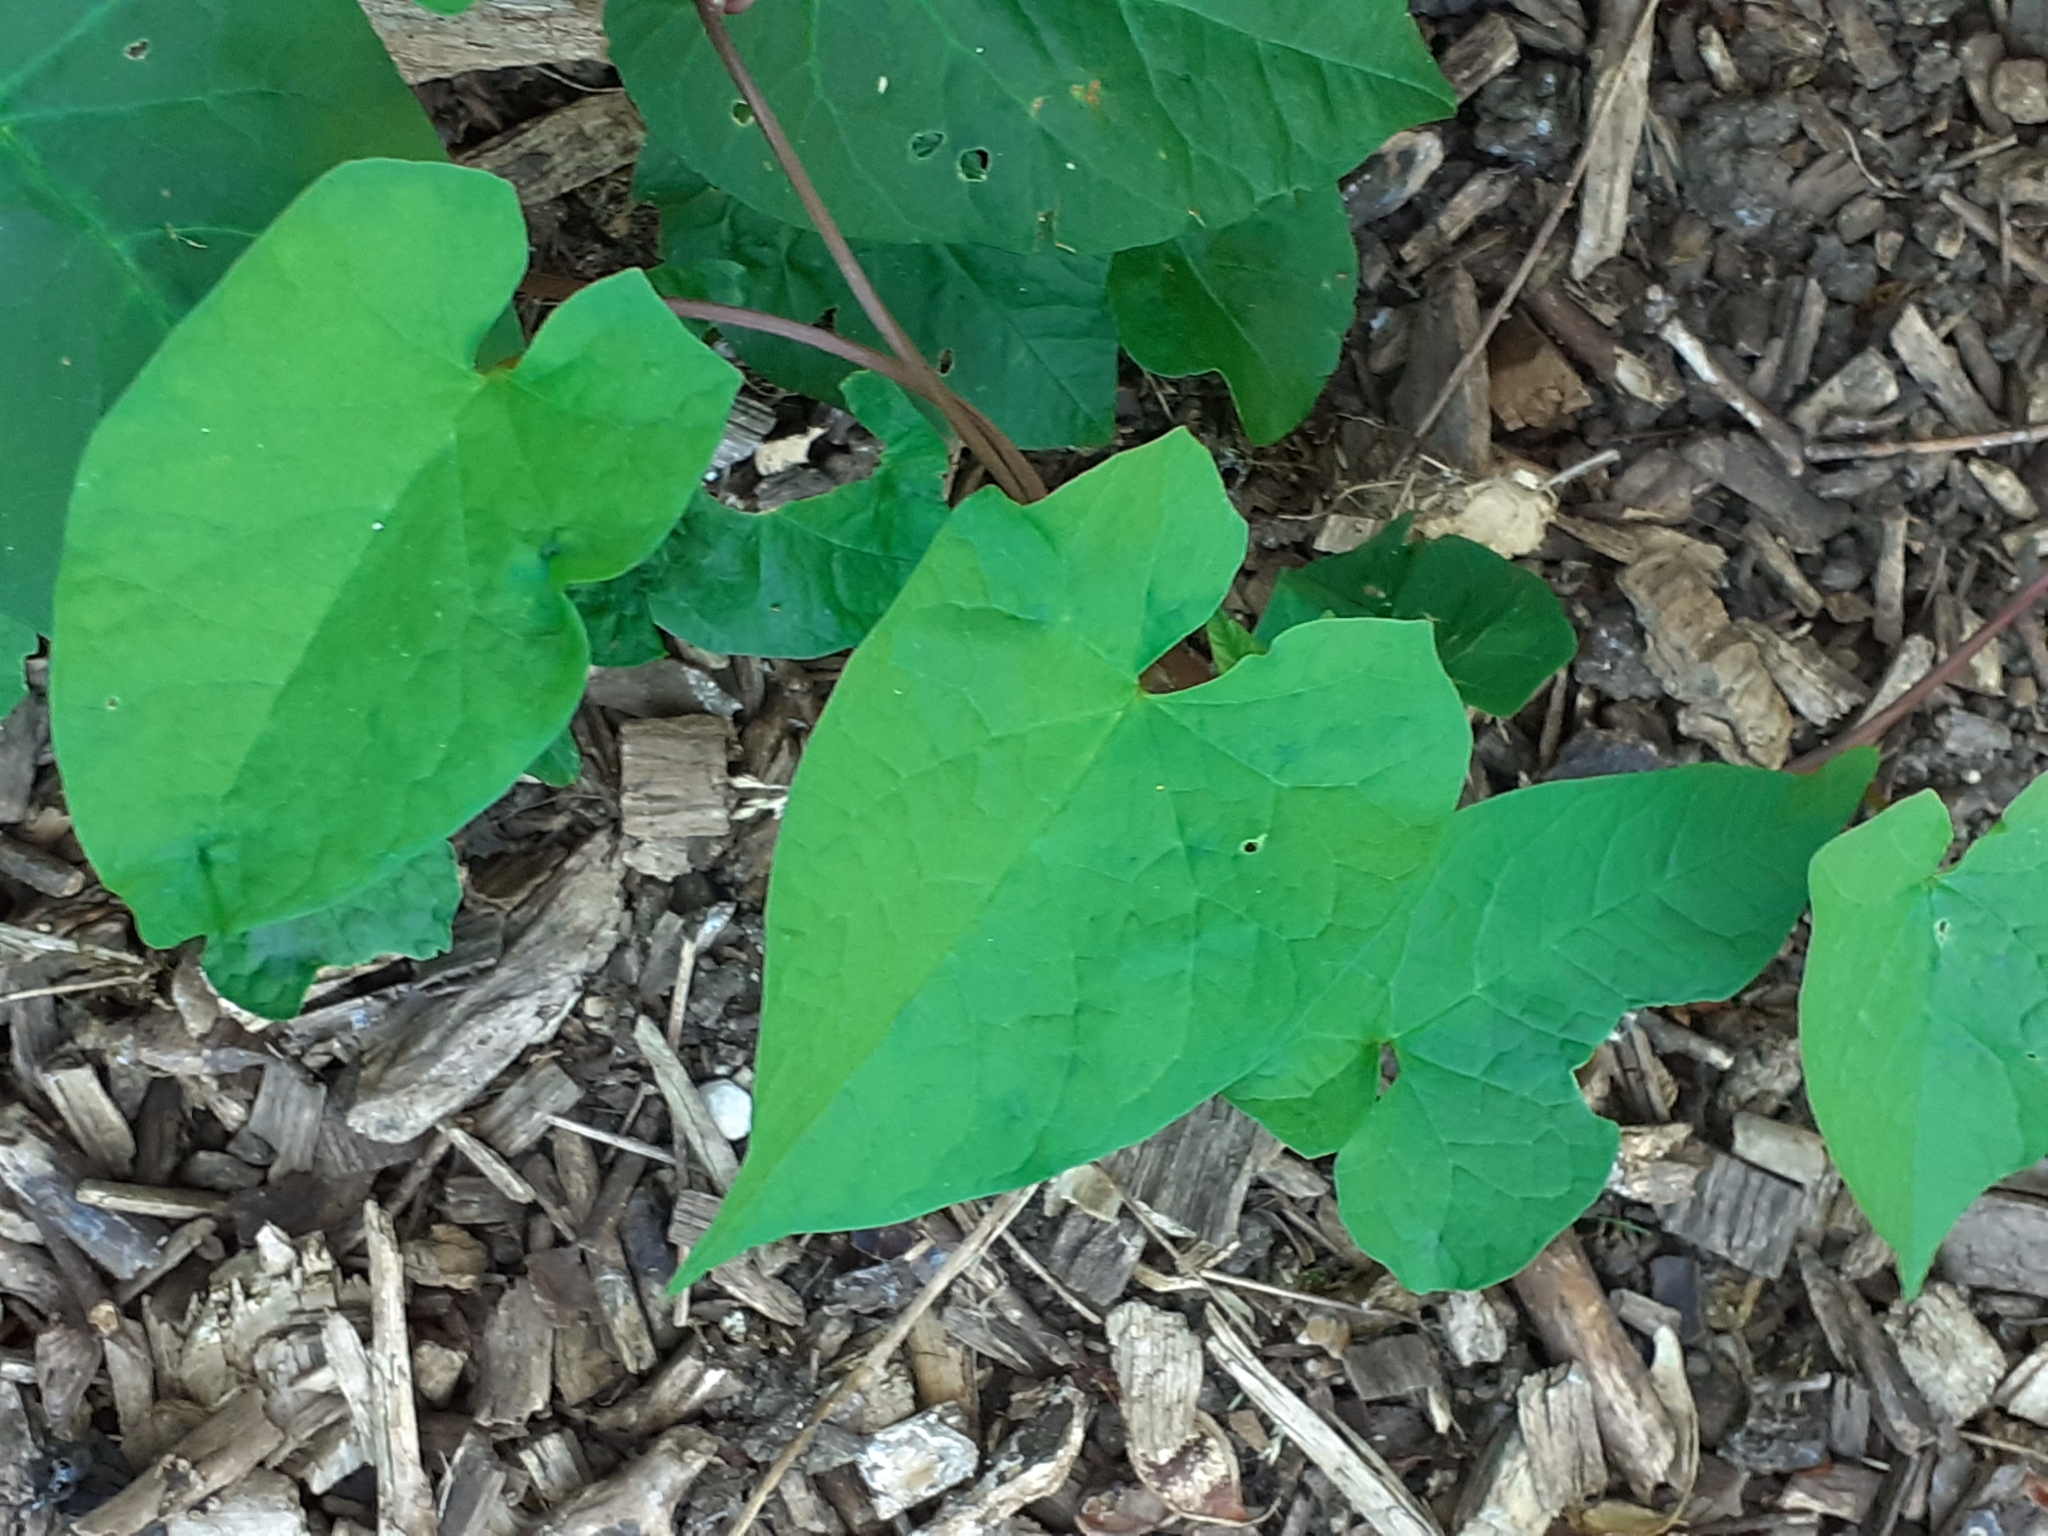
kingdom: Plantae
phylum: Tracheophyta
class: Magnoliopsida
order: Solanales
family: Convolvulaceae
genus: Calystegia
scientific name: Calystegia
